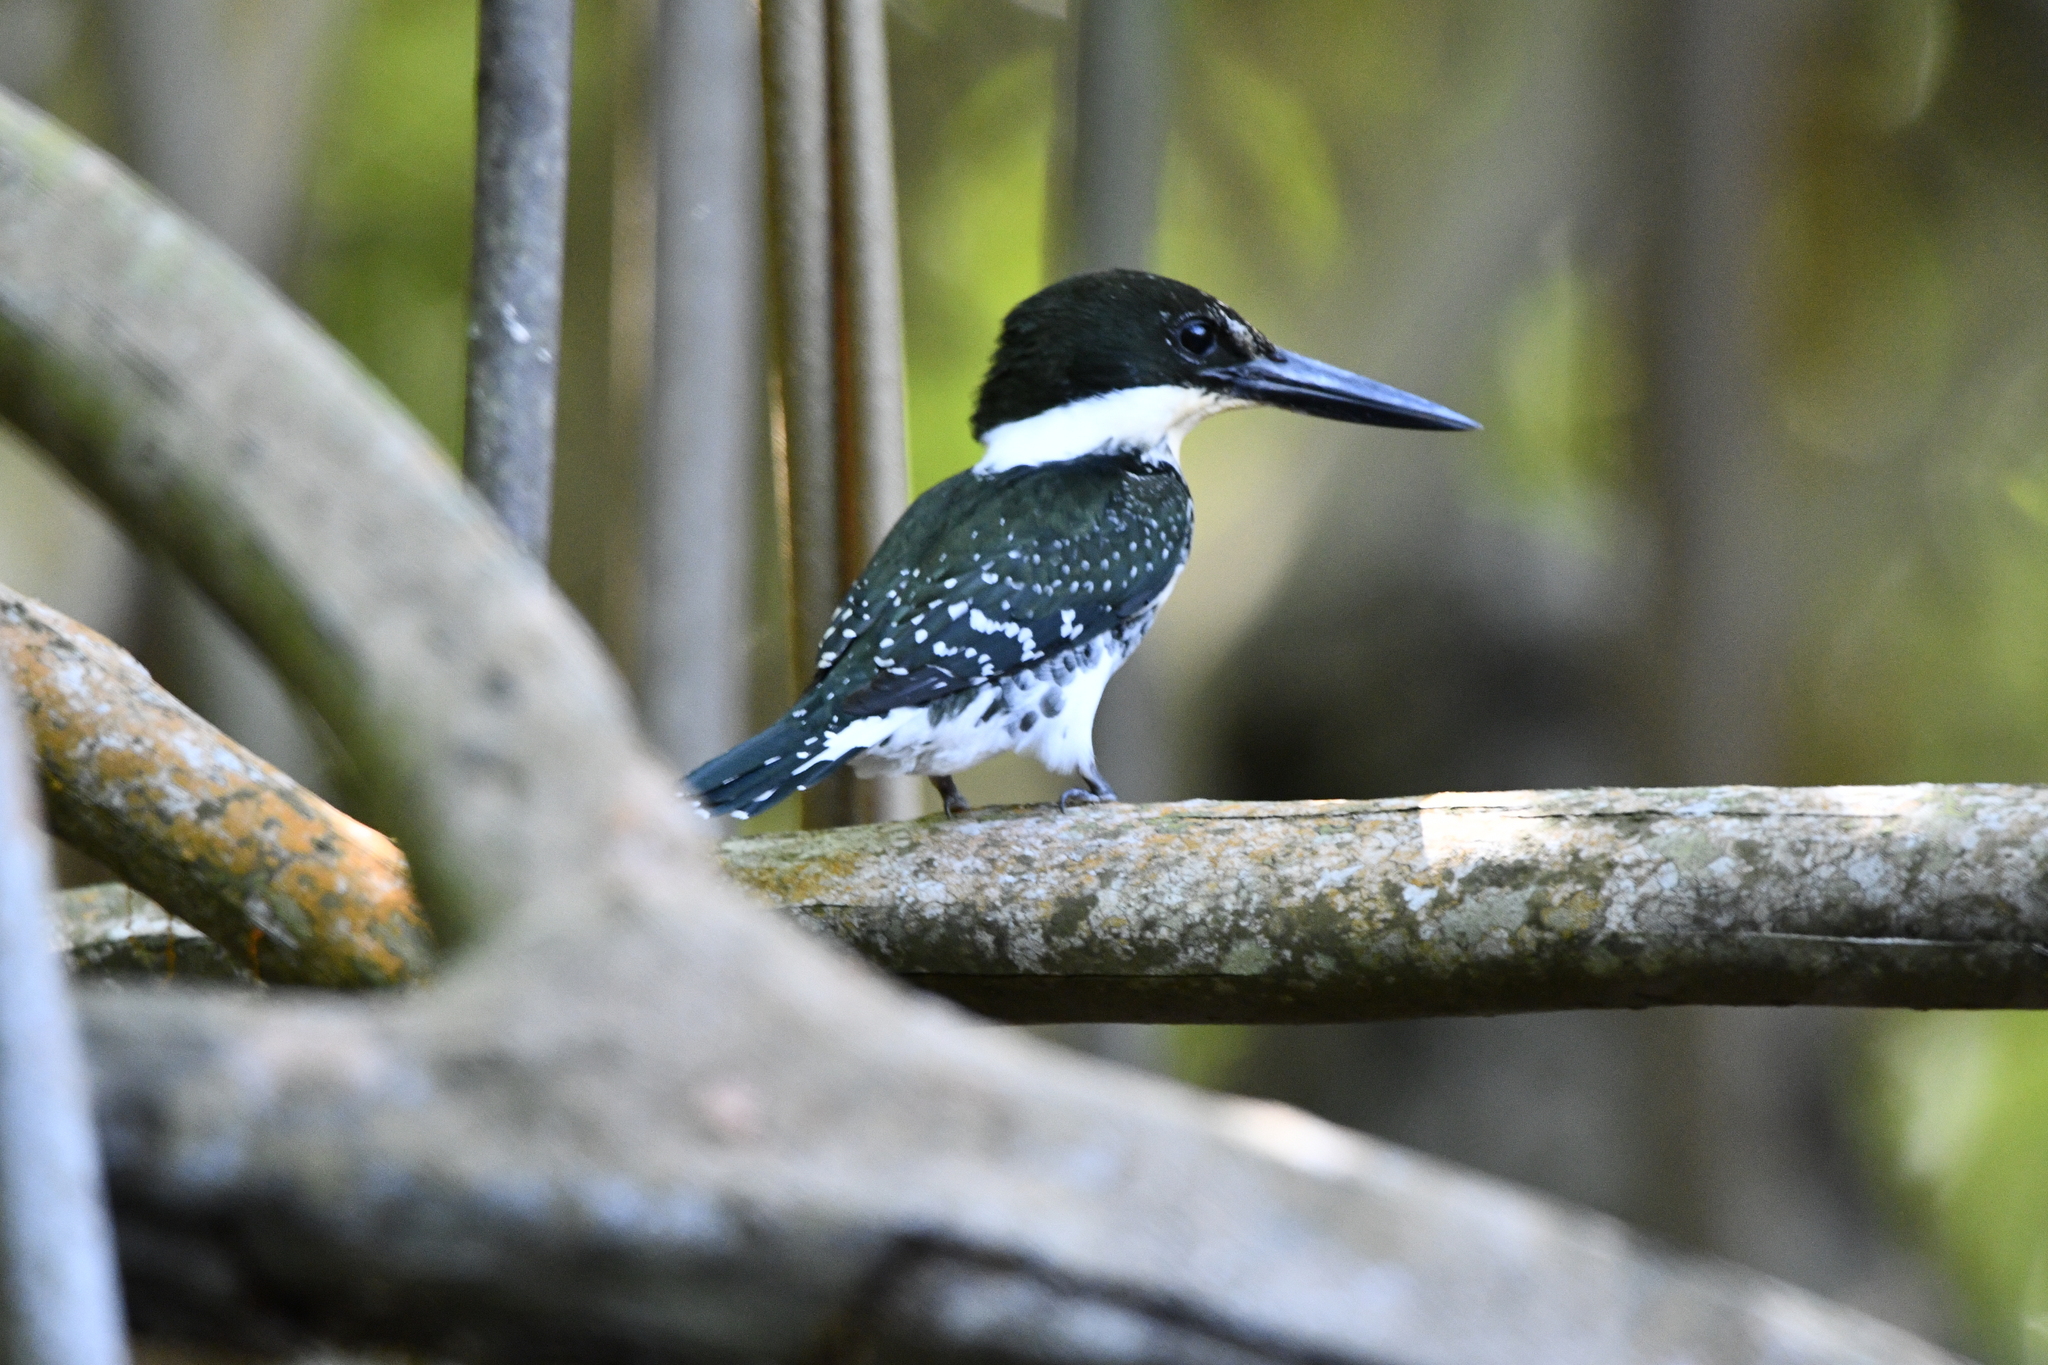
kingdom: Animalia
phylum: Chordata
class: Aves
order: Coraciiformes
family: Alcedinidae
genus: Chloroceryle
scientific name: Chloroceryle americana
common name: Green kingfisher
